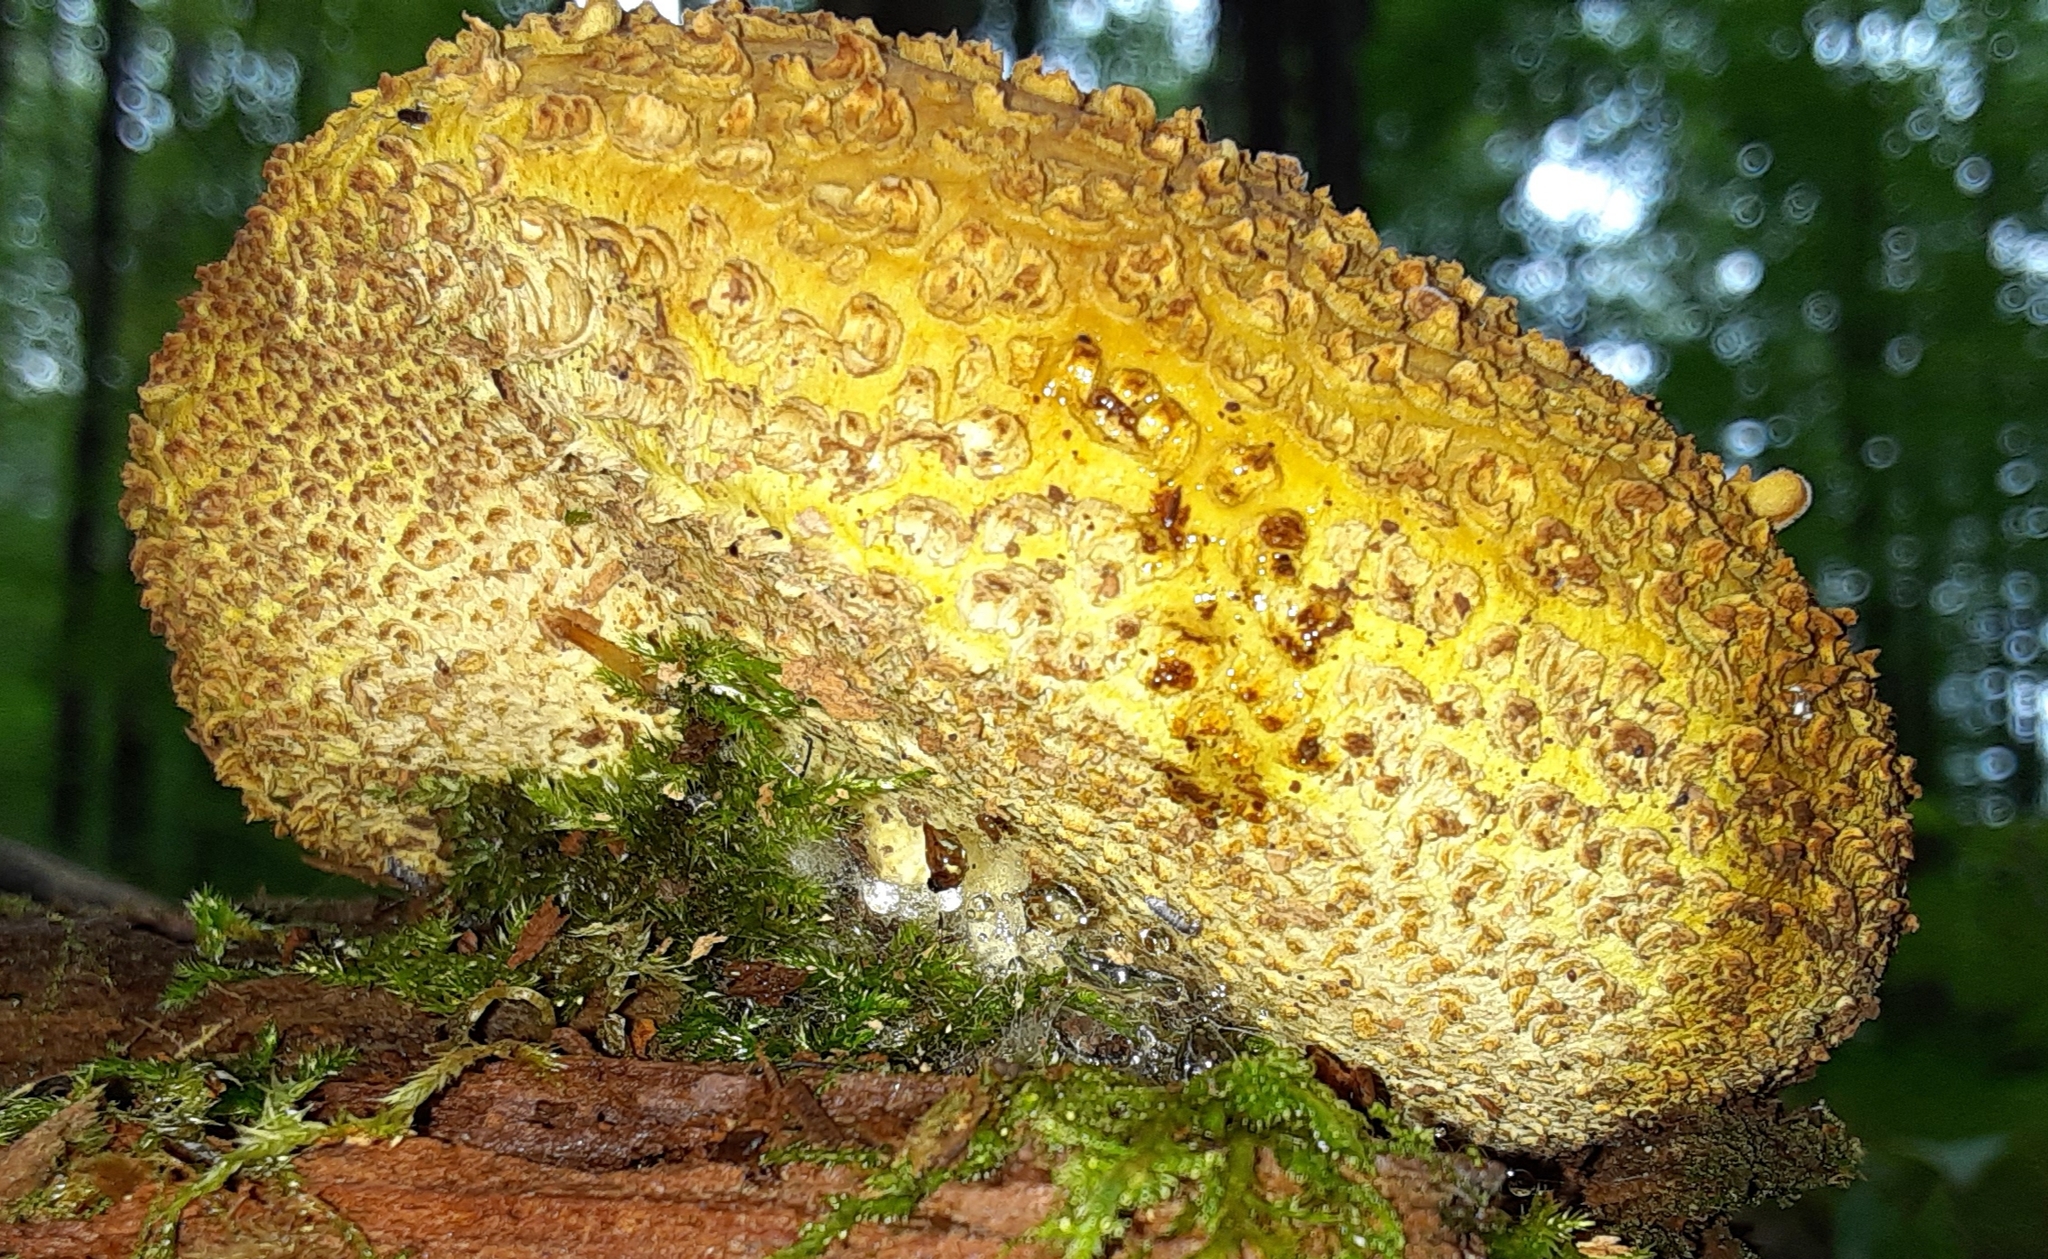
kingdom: Fungi
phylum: Basidiomycota
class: Agaricomycetes
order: Boletales
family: Sclerodermataceae
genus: Scleroderma
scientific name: Scleroderma citrinum
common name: Common earthball
